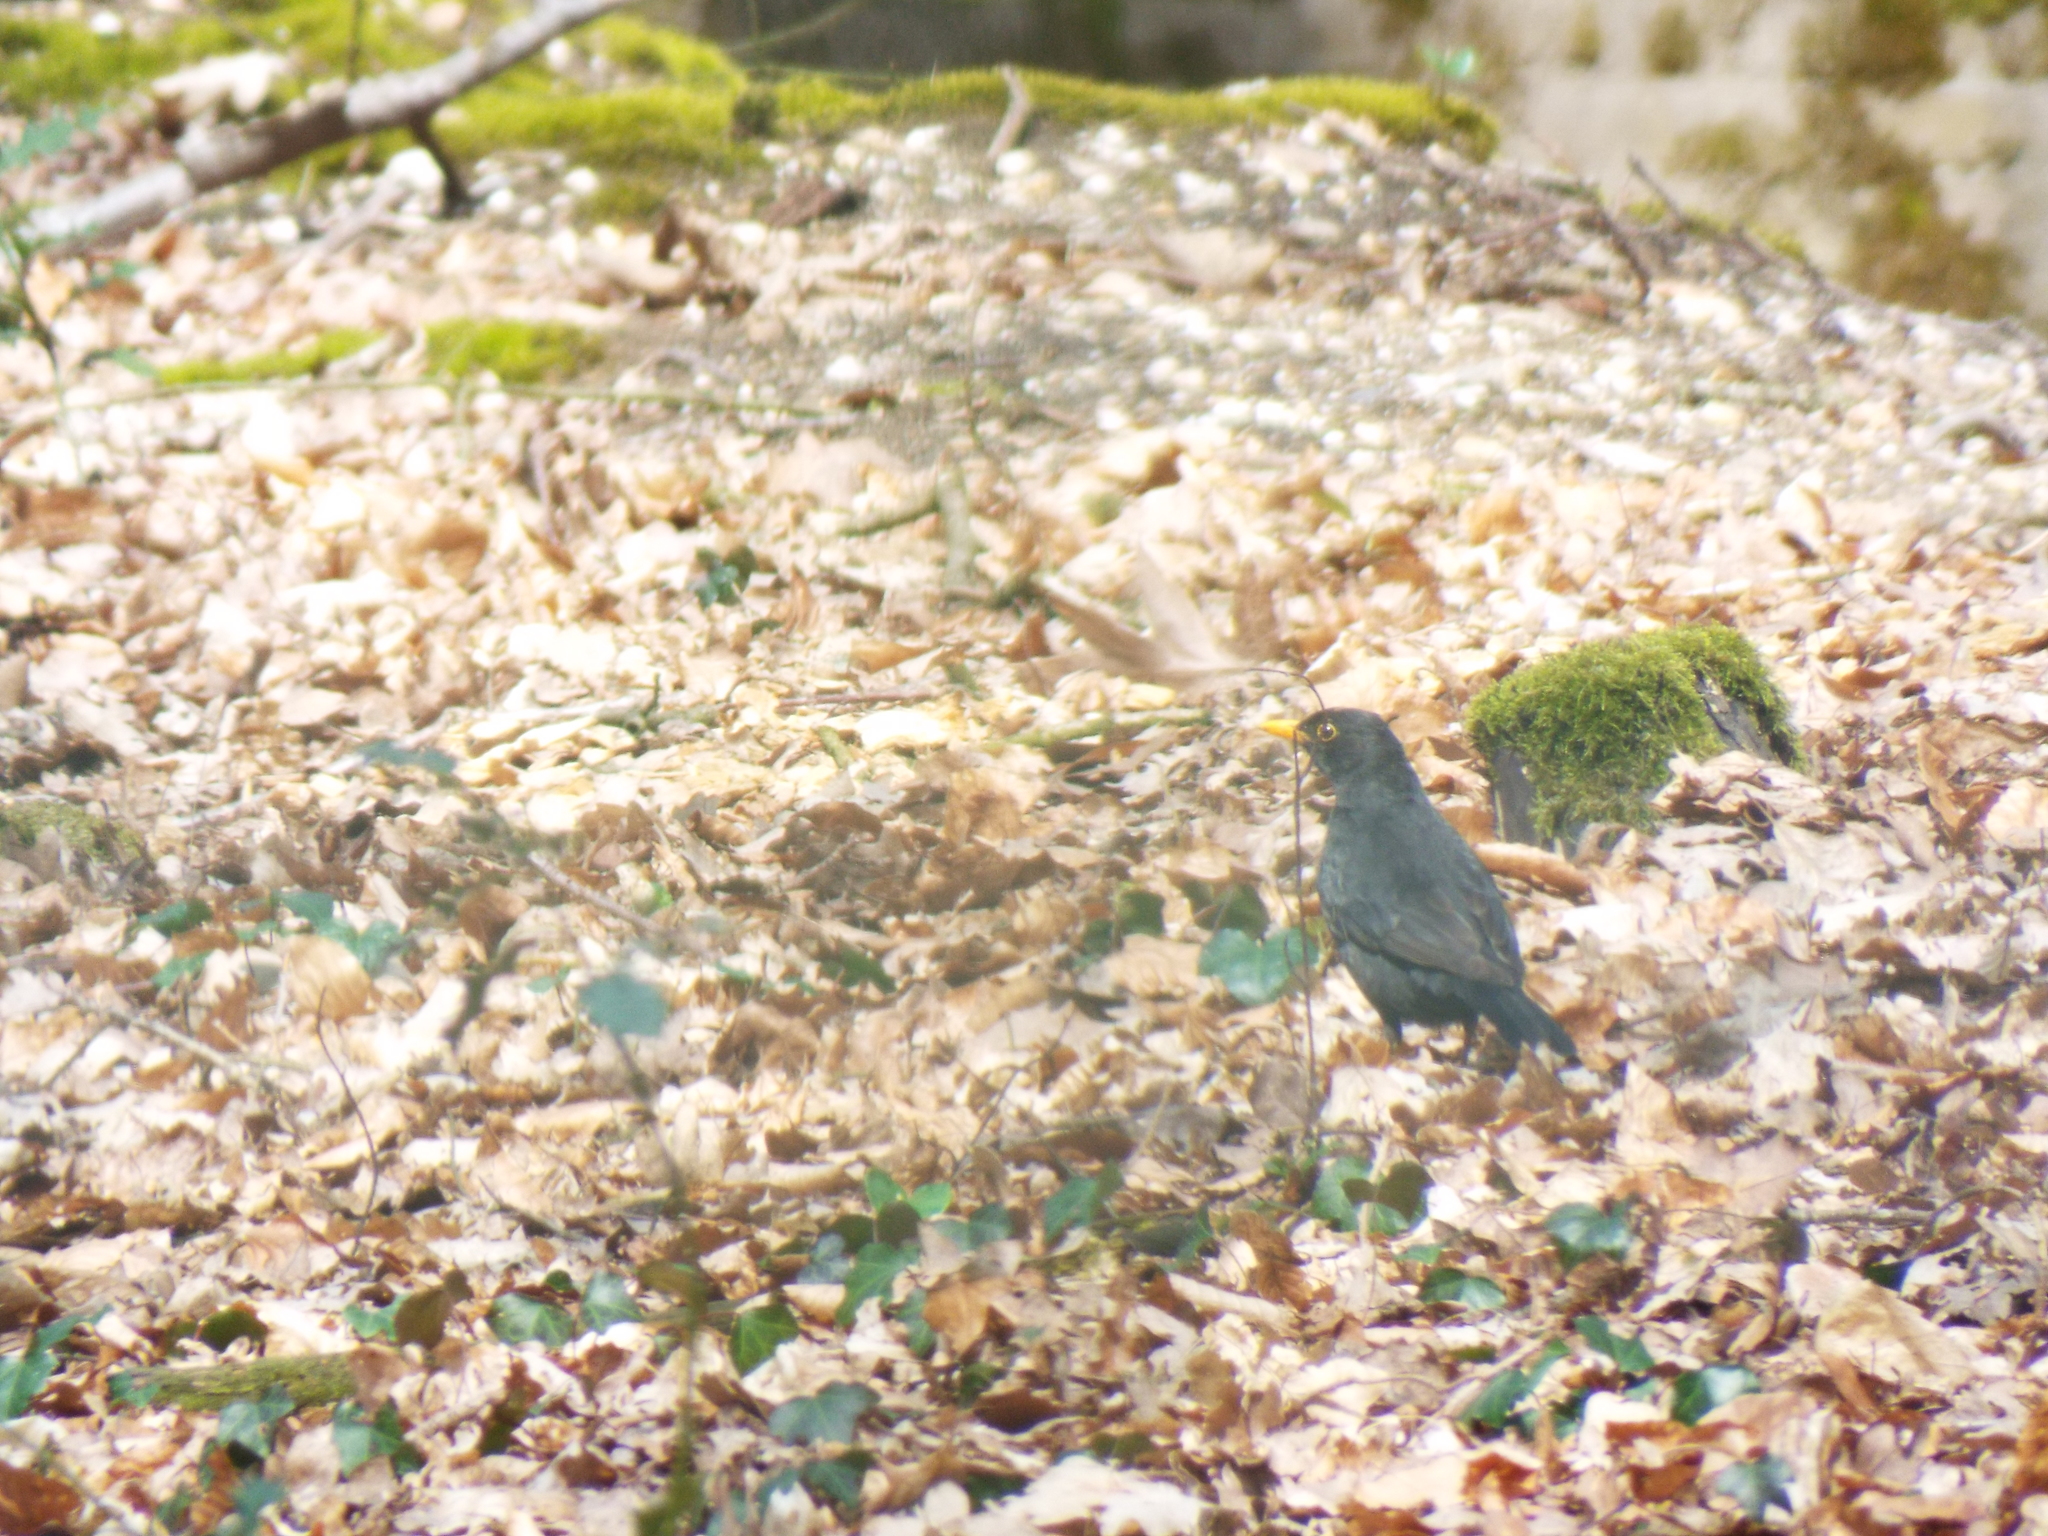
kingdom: Animalia
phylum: Chordata
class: Aves
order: Passeriformes
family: Turdidae
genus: Turdus
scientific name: Turdus merula
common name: Common blackbird
